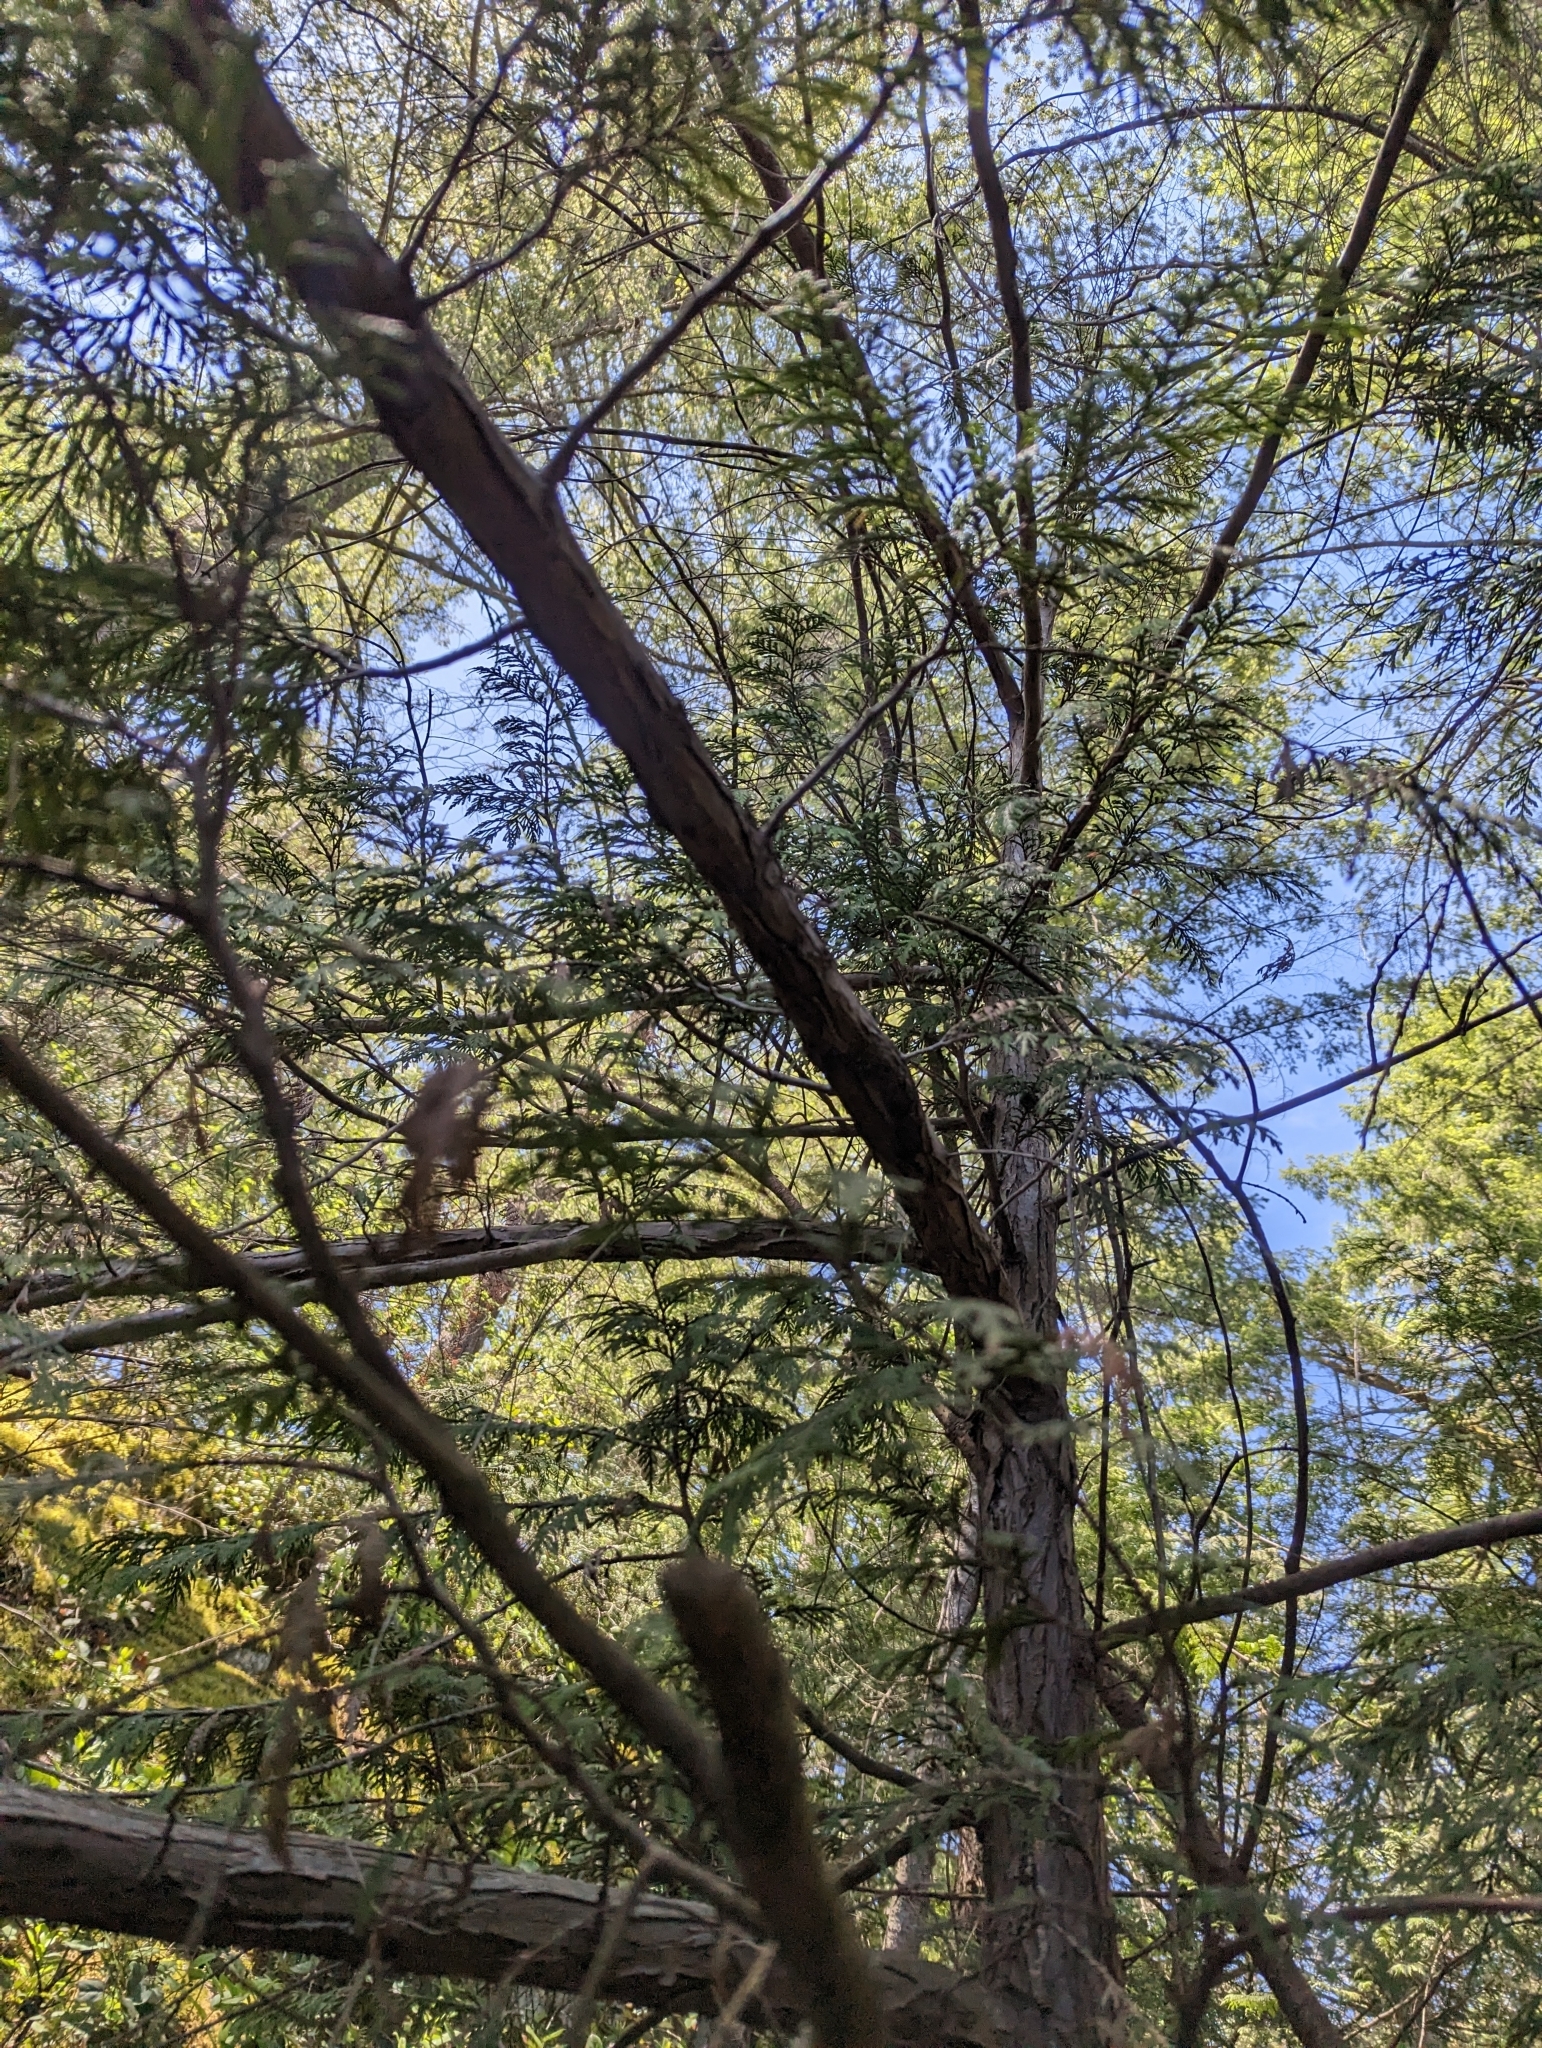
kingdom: Plantae
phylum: Tracheophyta
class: Pinopsida
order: Pinales
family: Cupressaceae
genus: Thuja
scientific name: Thuja plicata
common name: Western red-cedar
